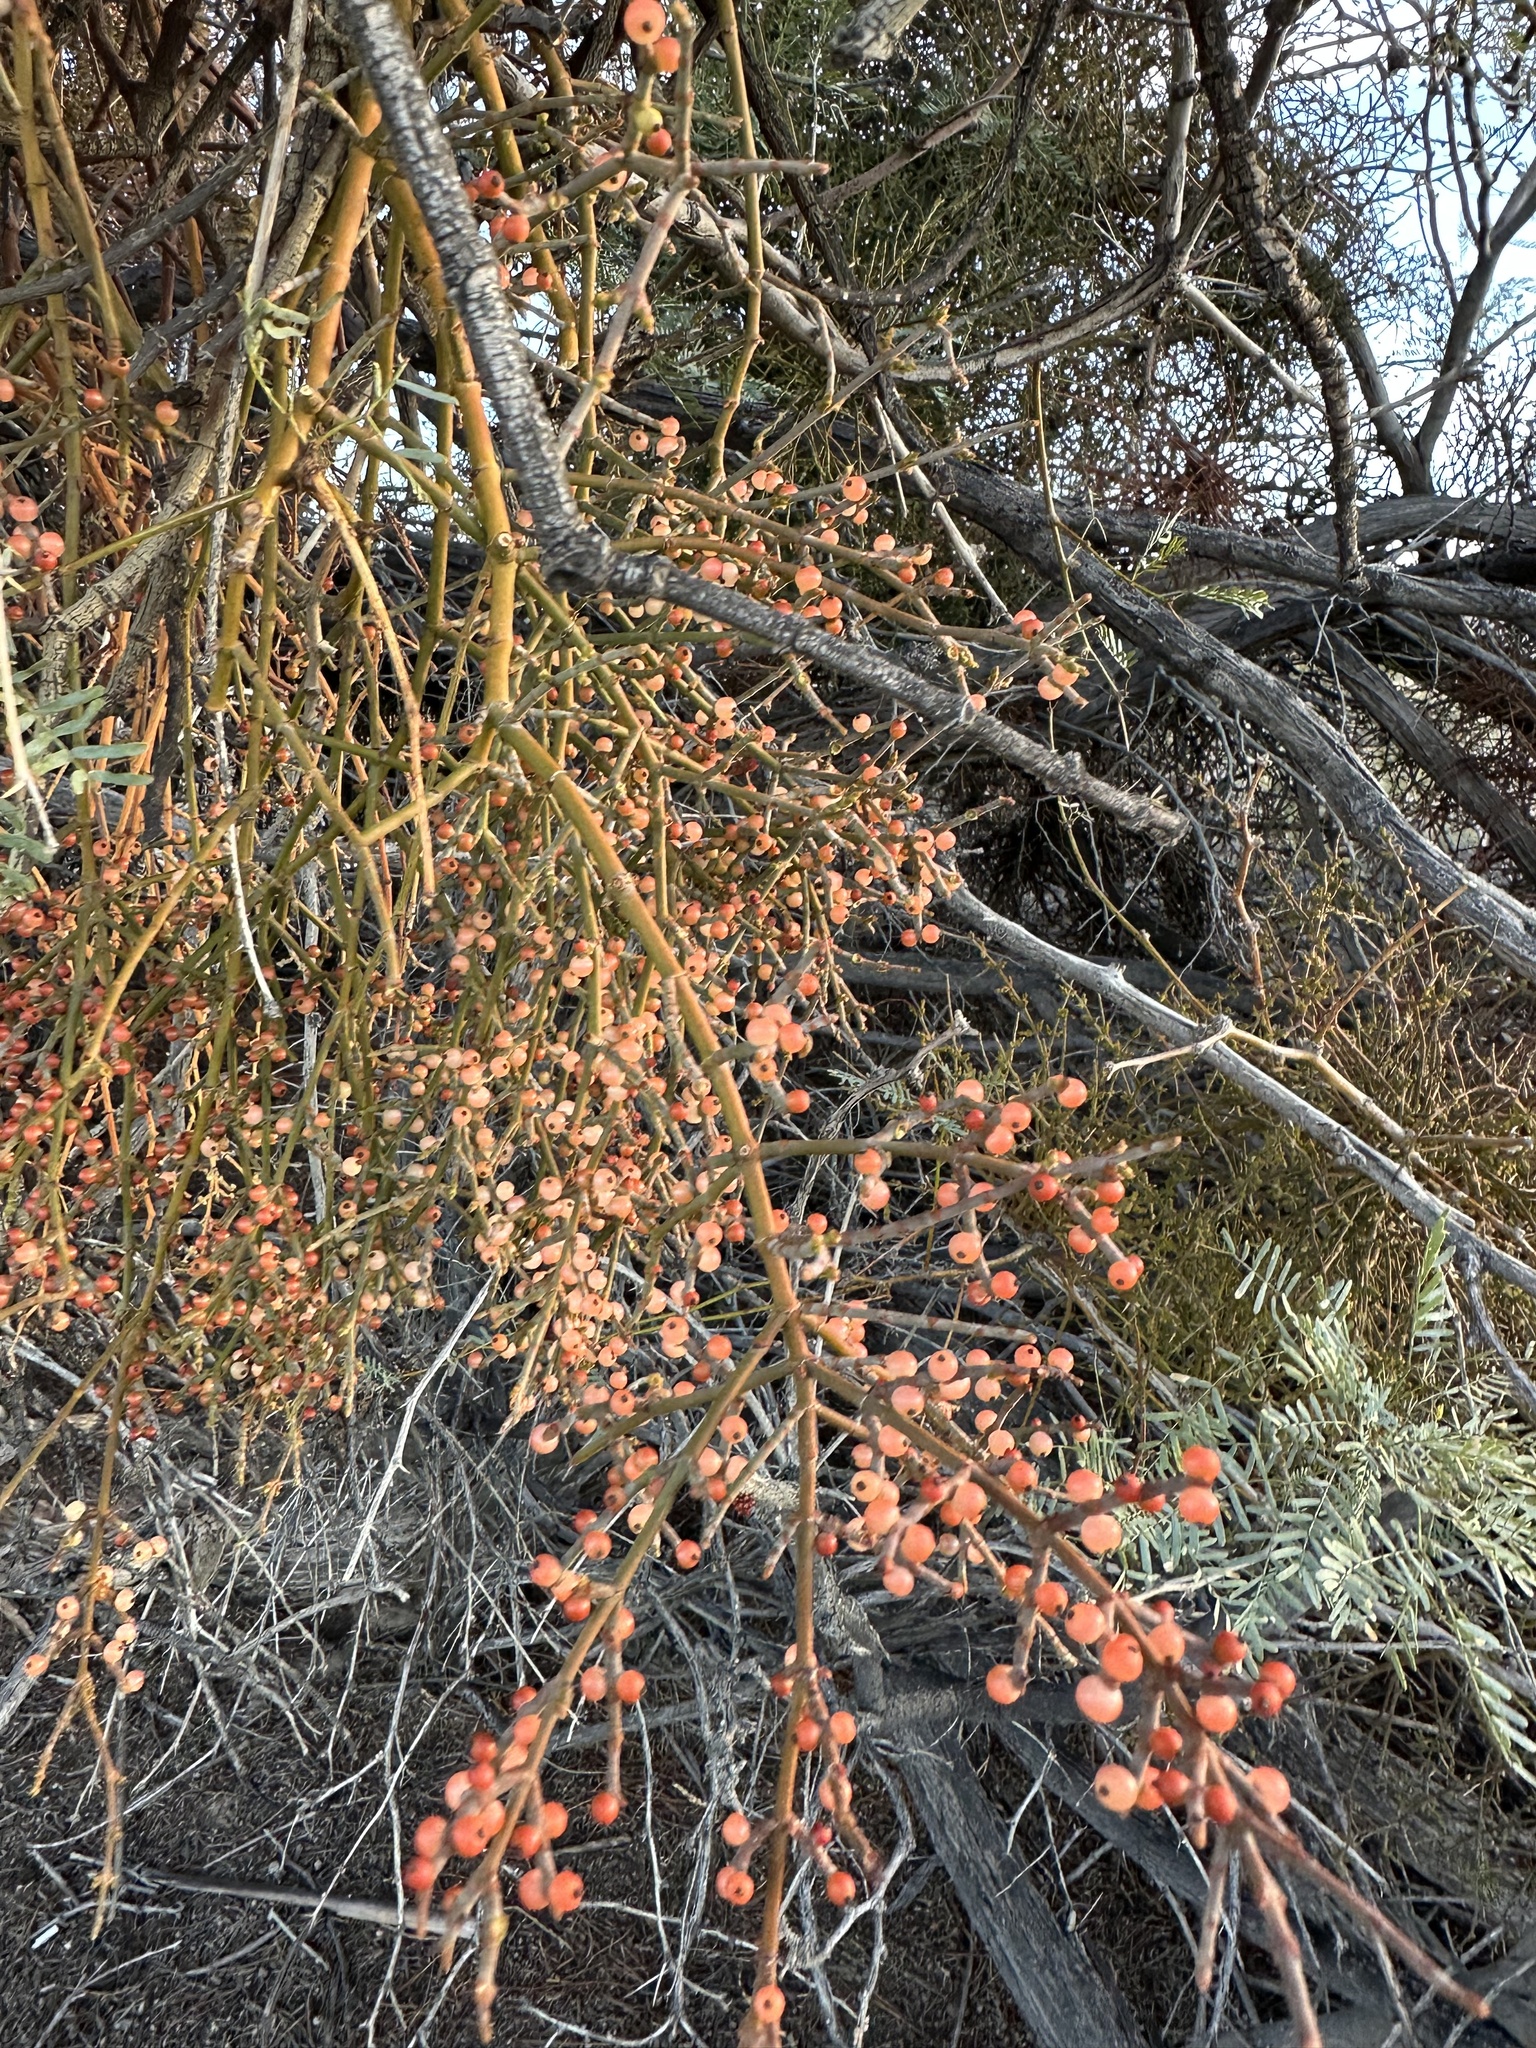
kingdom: Plantae
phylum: Tracheophyta
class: Magnoliopsida
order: Santalales
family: Viscaceae
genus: Phoradendron
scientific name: Phoradendron californicum
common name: Acacia mistletoe
